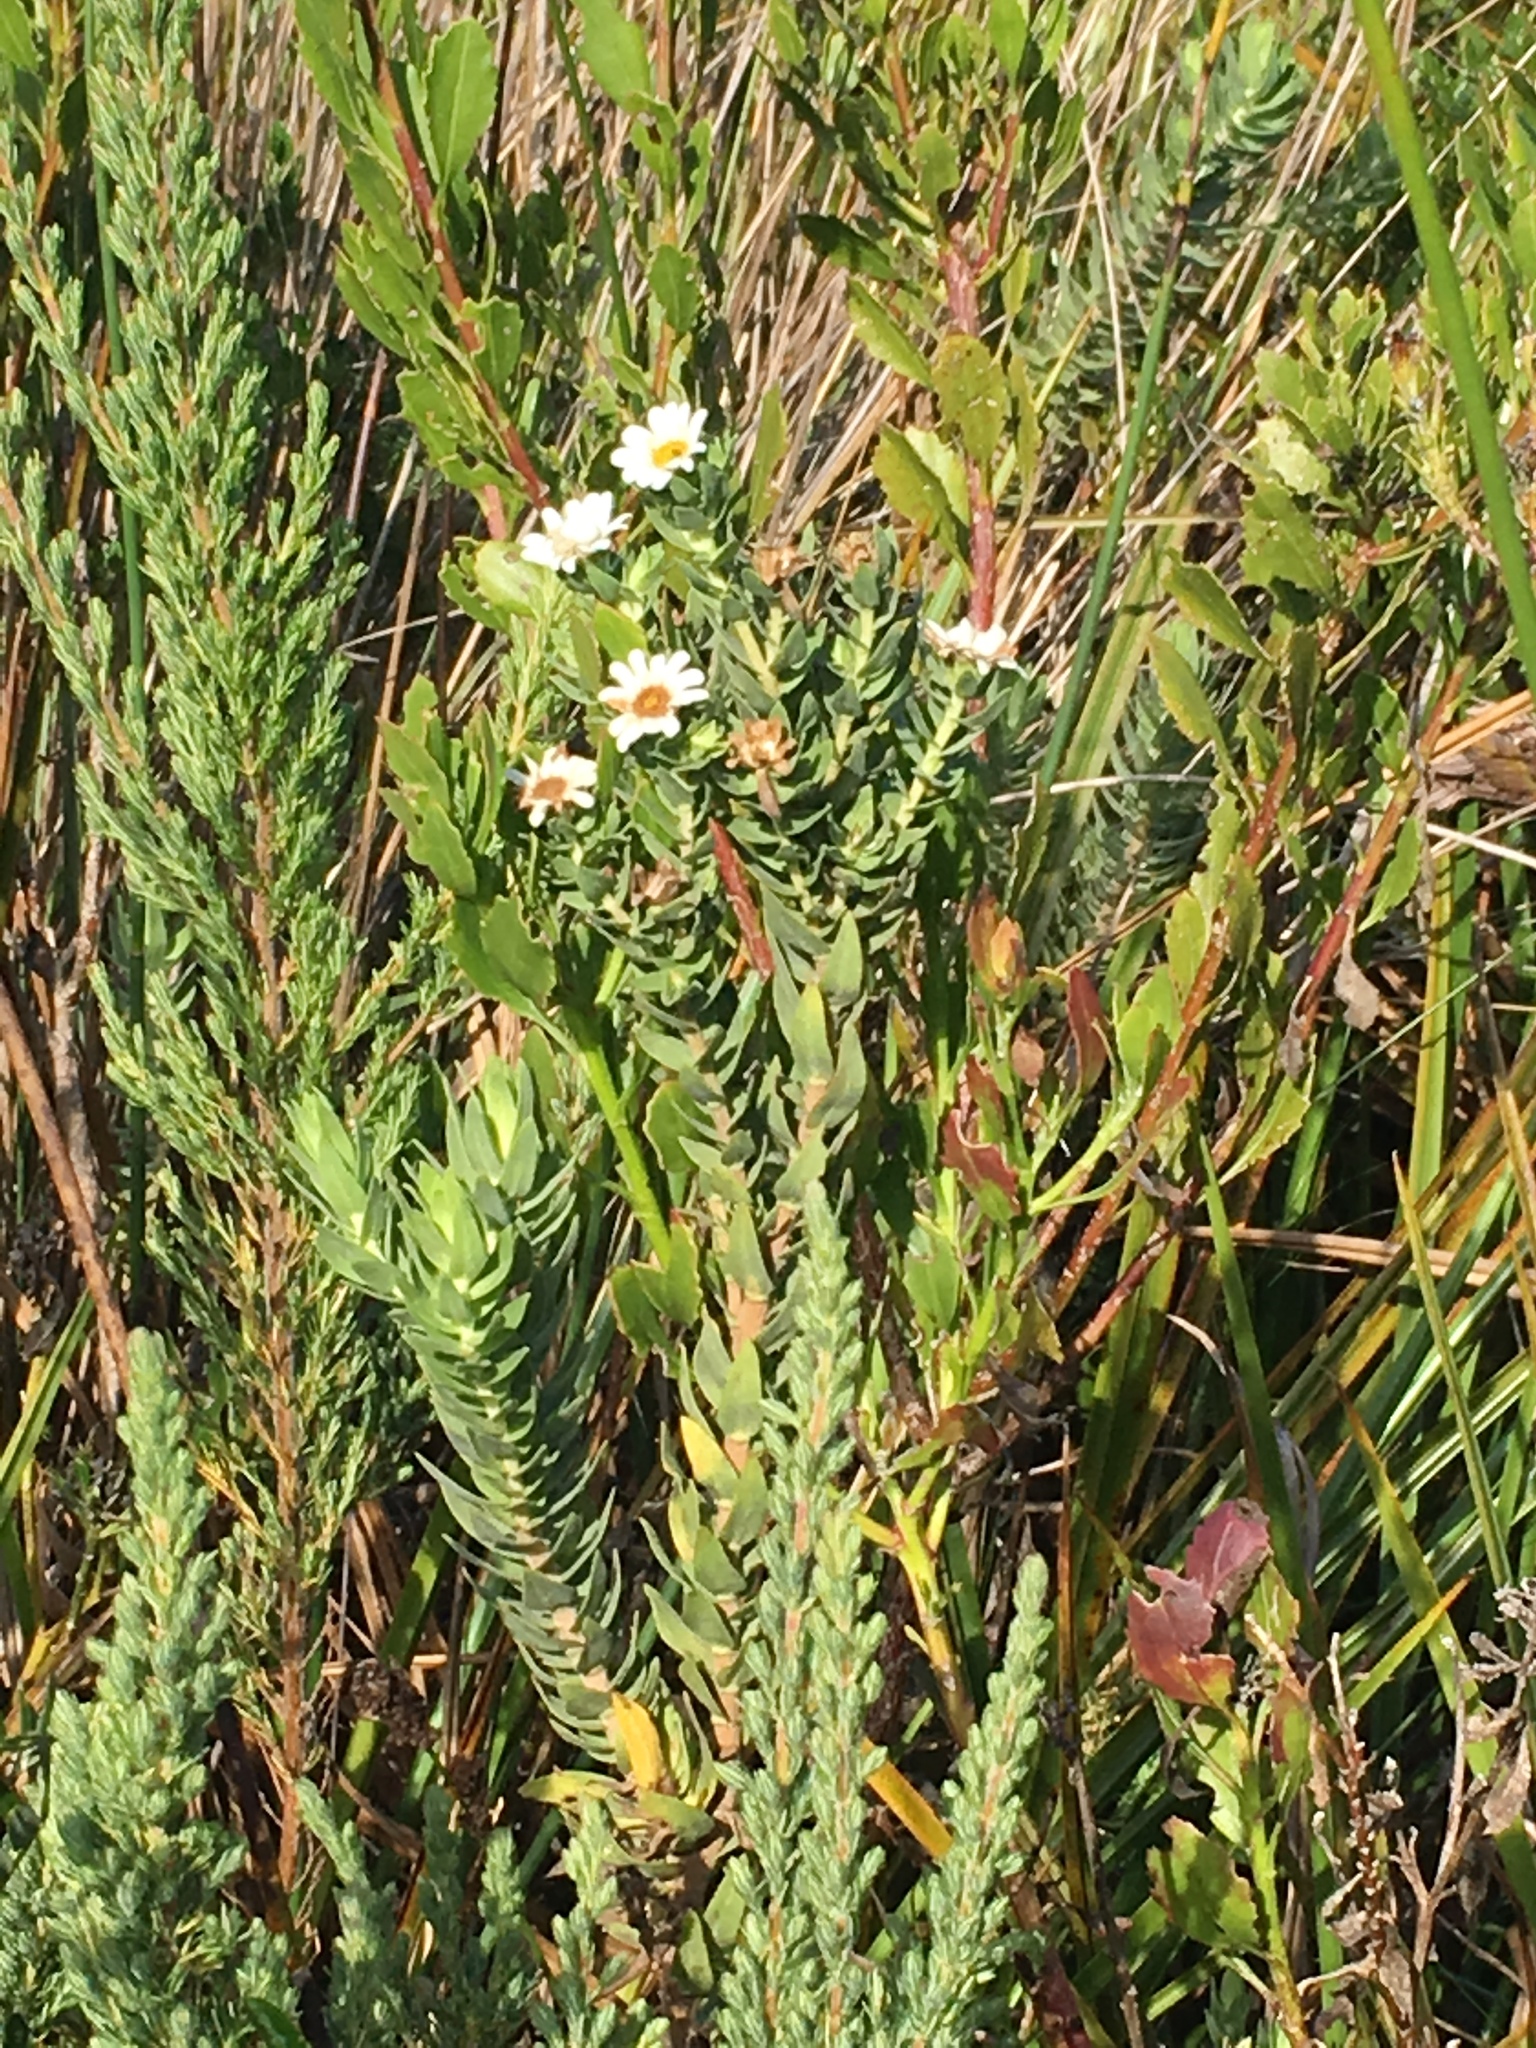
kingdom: Plantae
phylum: Tracheophyta
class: Magnoliopsida
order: Asterales
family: Asteraceae
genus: Osmitopsis
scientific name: Osmitopsis asteriscoides
